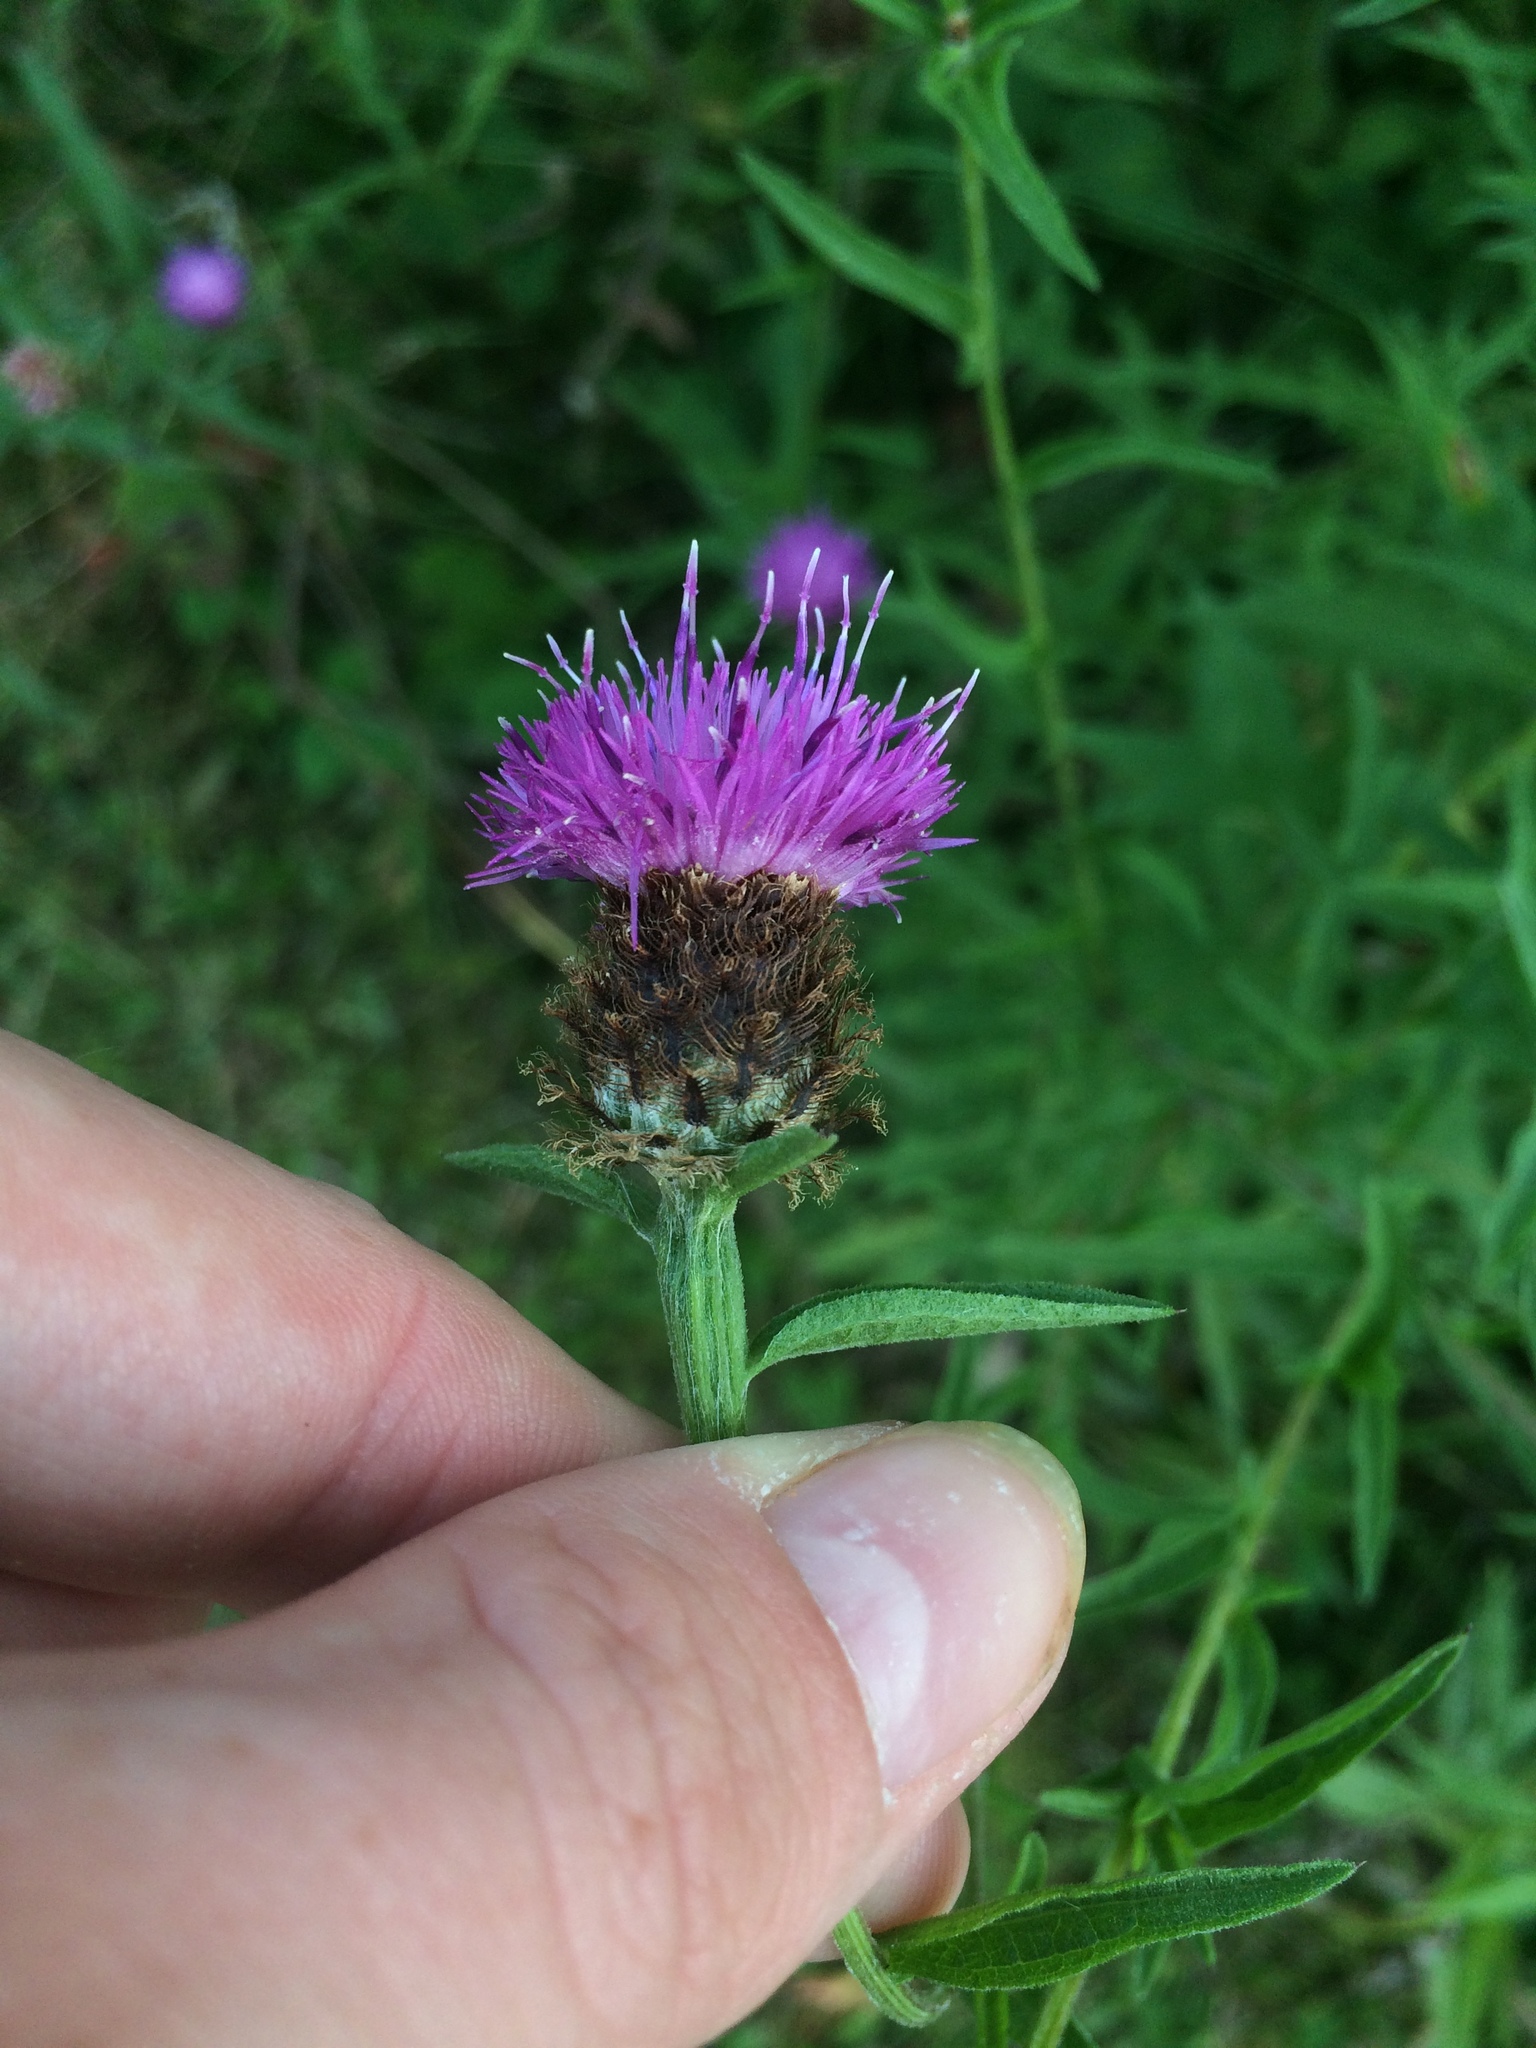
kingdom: Plantae
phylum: Tracheophyta
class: Magnoliopsida
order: Asterales
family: Asteraceae
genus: Centaurea
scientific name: Centaurea nigra
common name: Lesser knapweed
